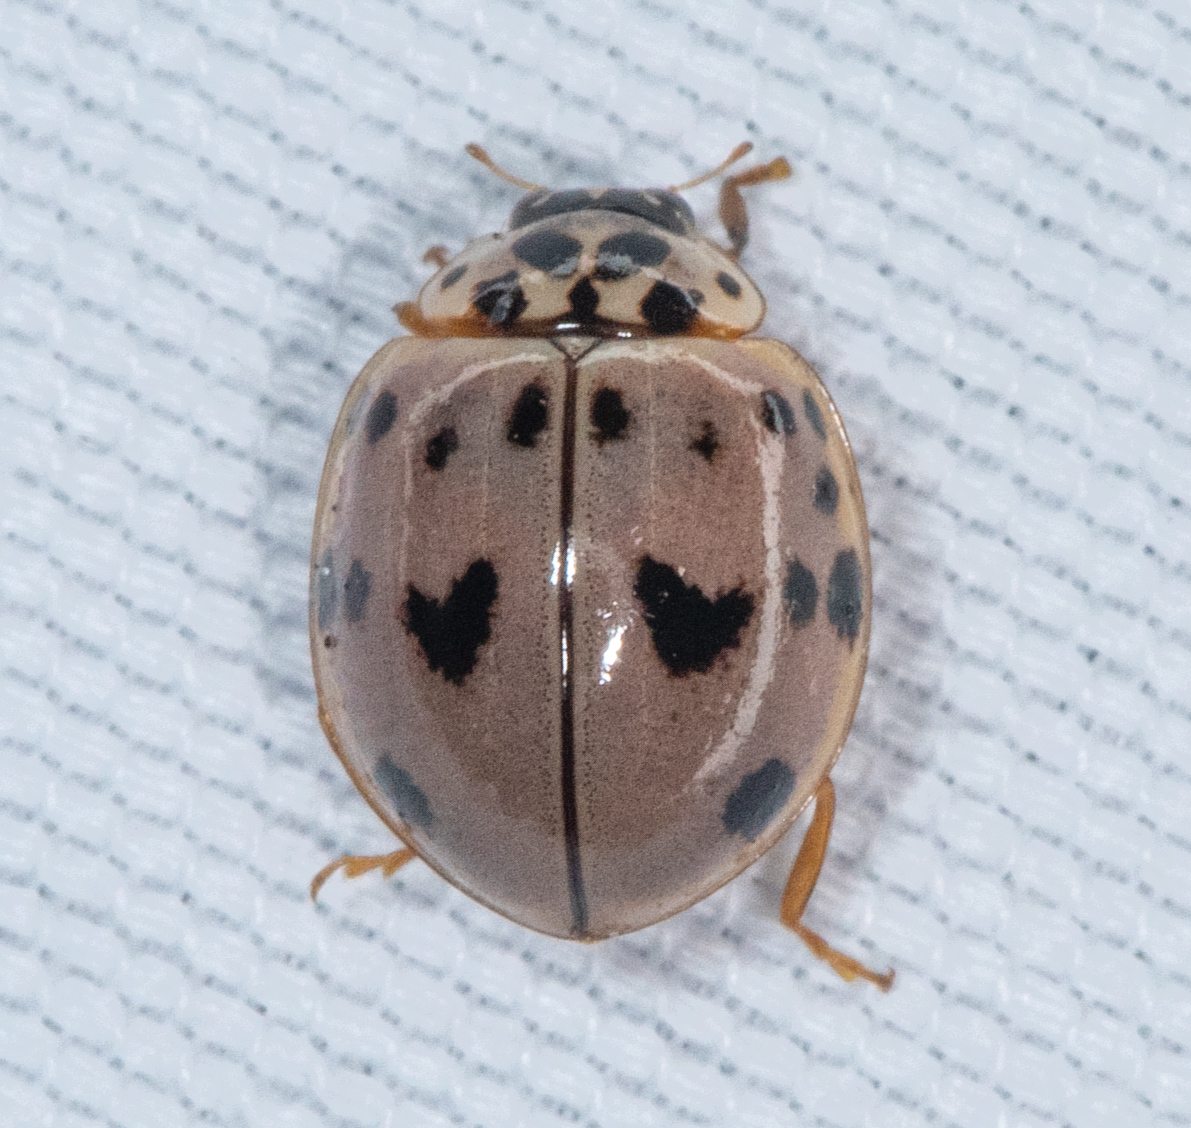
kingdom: Animalia
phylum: Arthropoda
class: Insecta
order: Coleoptera
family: Coccinellidae
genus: Olla
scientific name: Olla v-nigrum
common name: Ashy gray lady beetle
